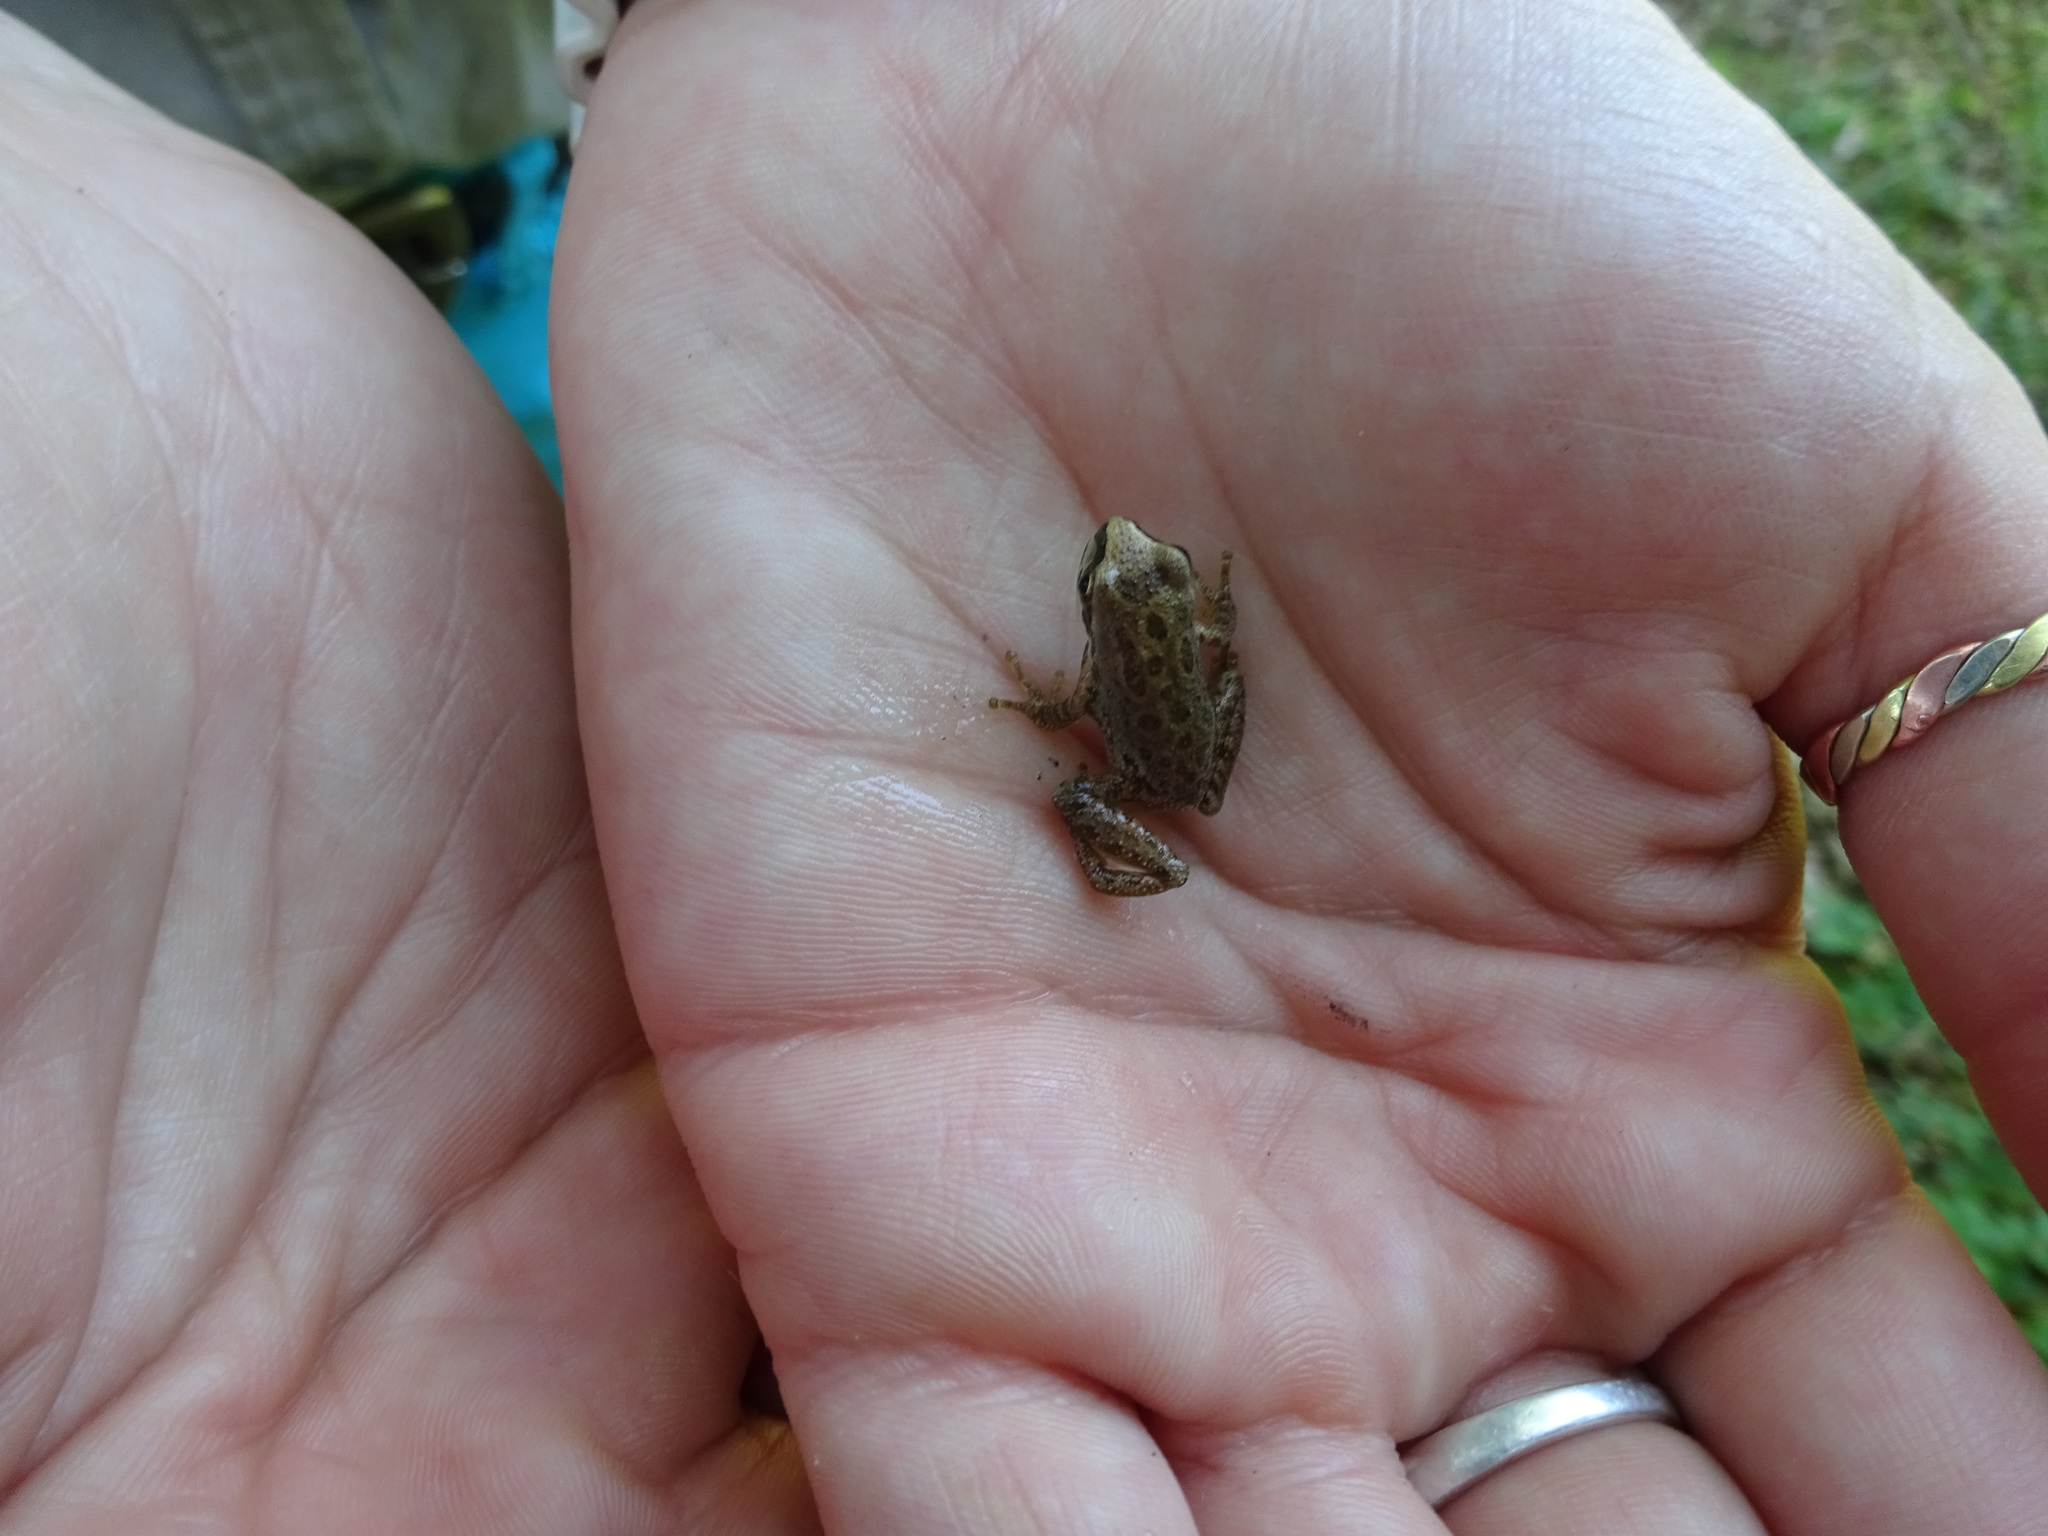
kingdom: Animalia
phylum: Chordata
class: Amphibia
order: Anura
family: Hylidae
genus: Pseudacris
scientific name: Pseudacris regilla
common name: Pacific chorus frog
